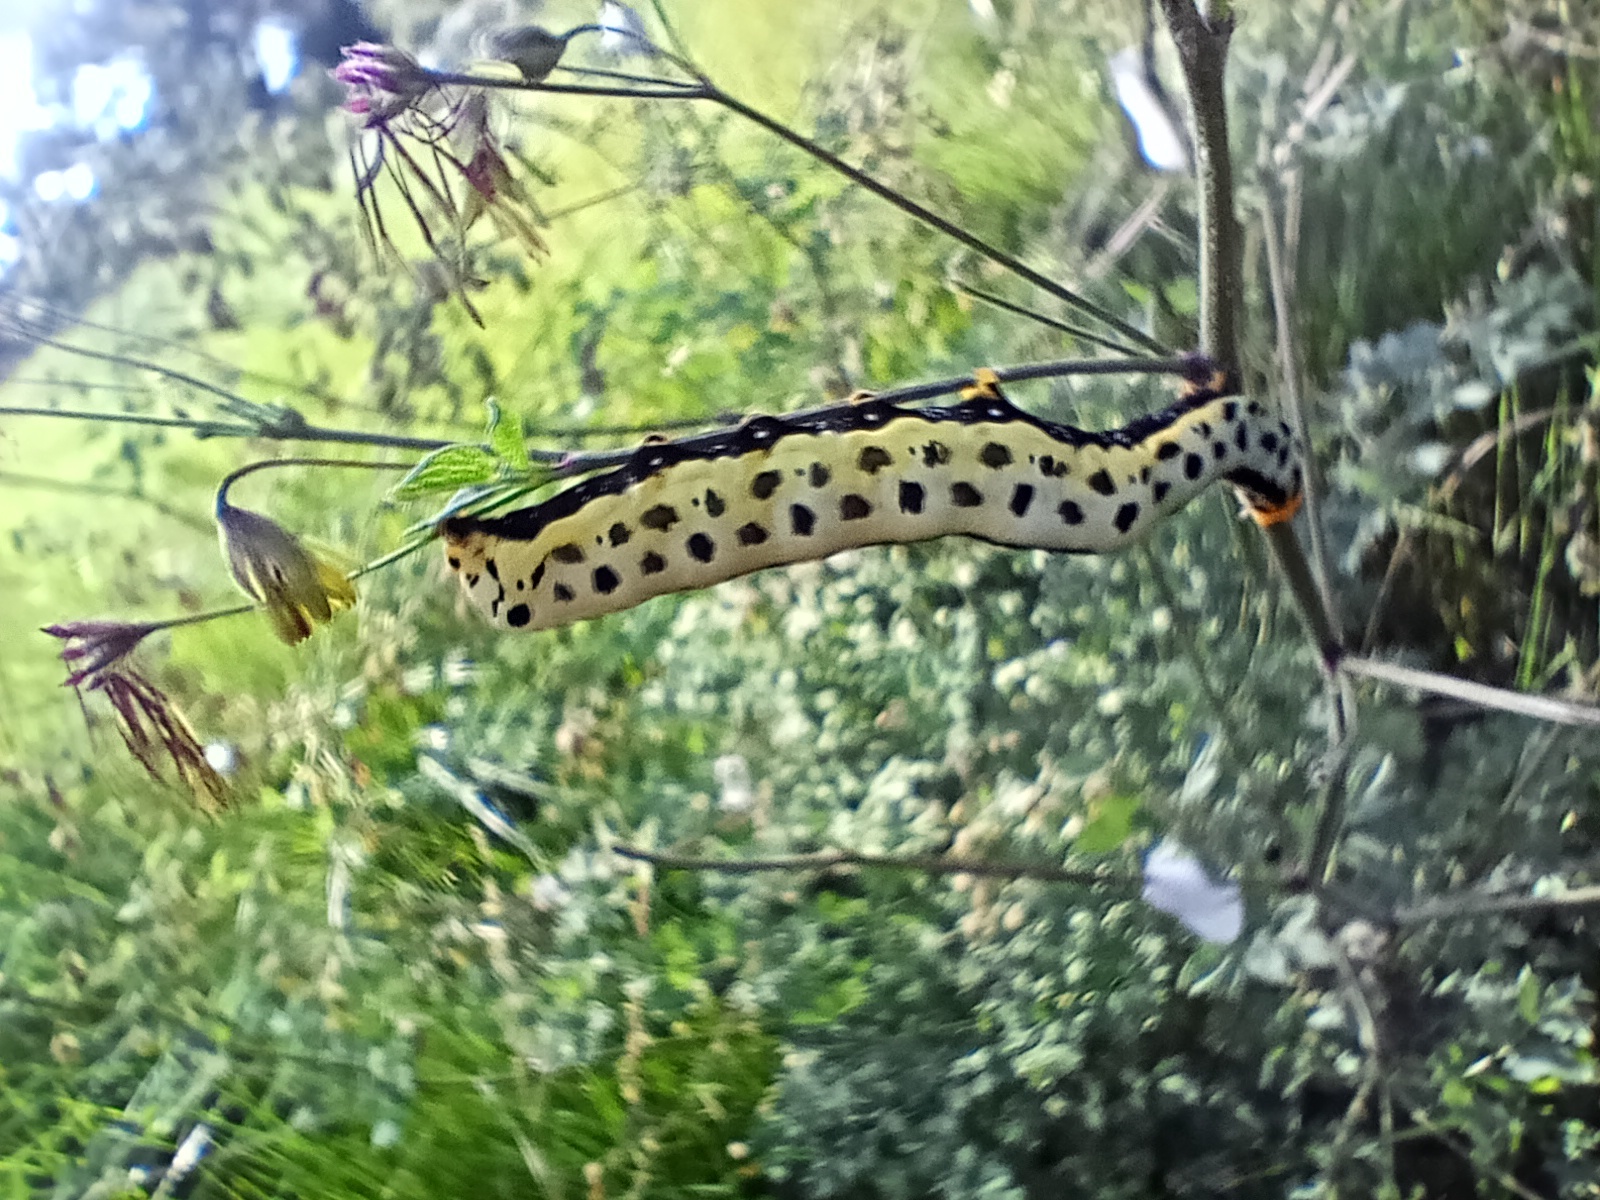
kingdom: Animalia
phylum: Arthropoda
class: Insecta
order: Lepidoptera
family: Erebidae
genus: Calyptra
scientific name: Calyptra thalictri
